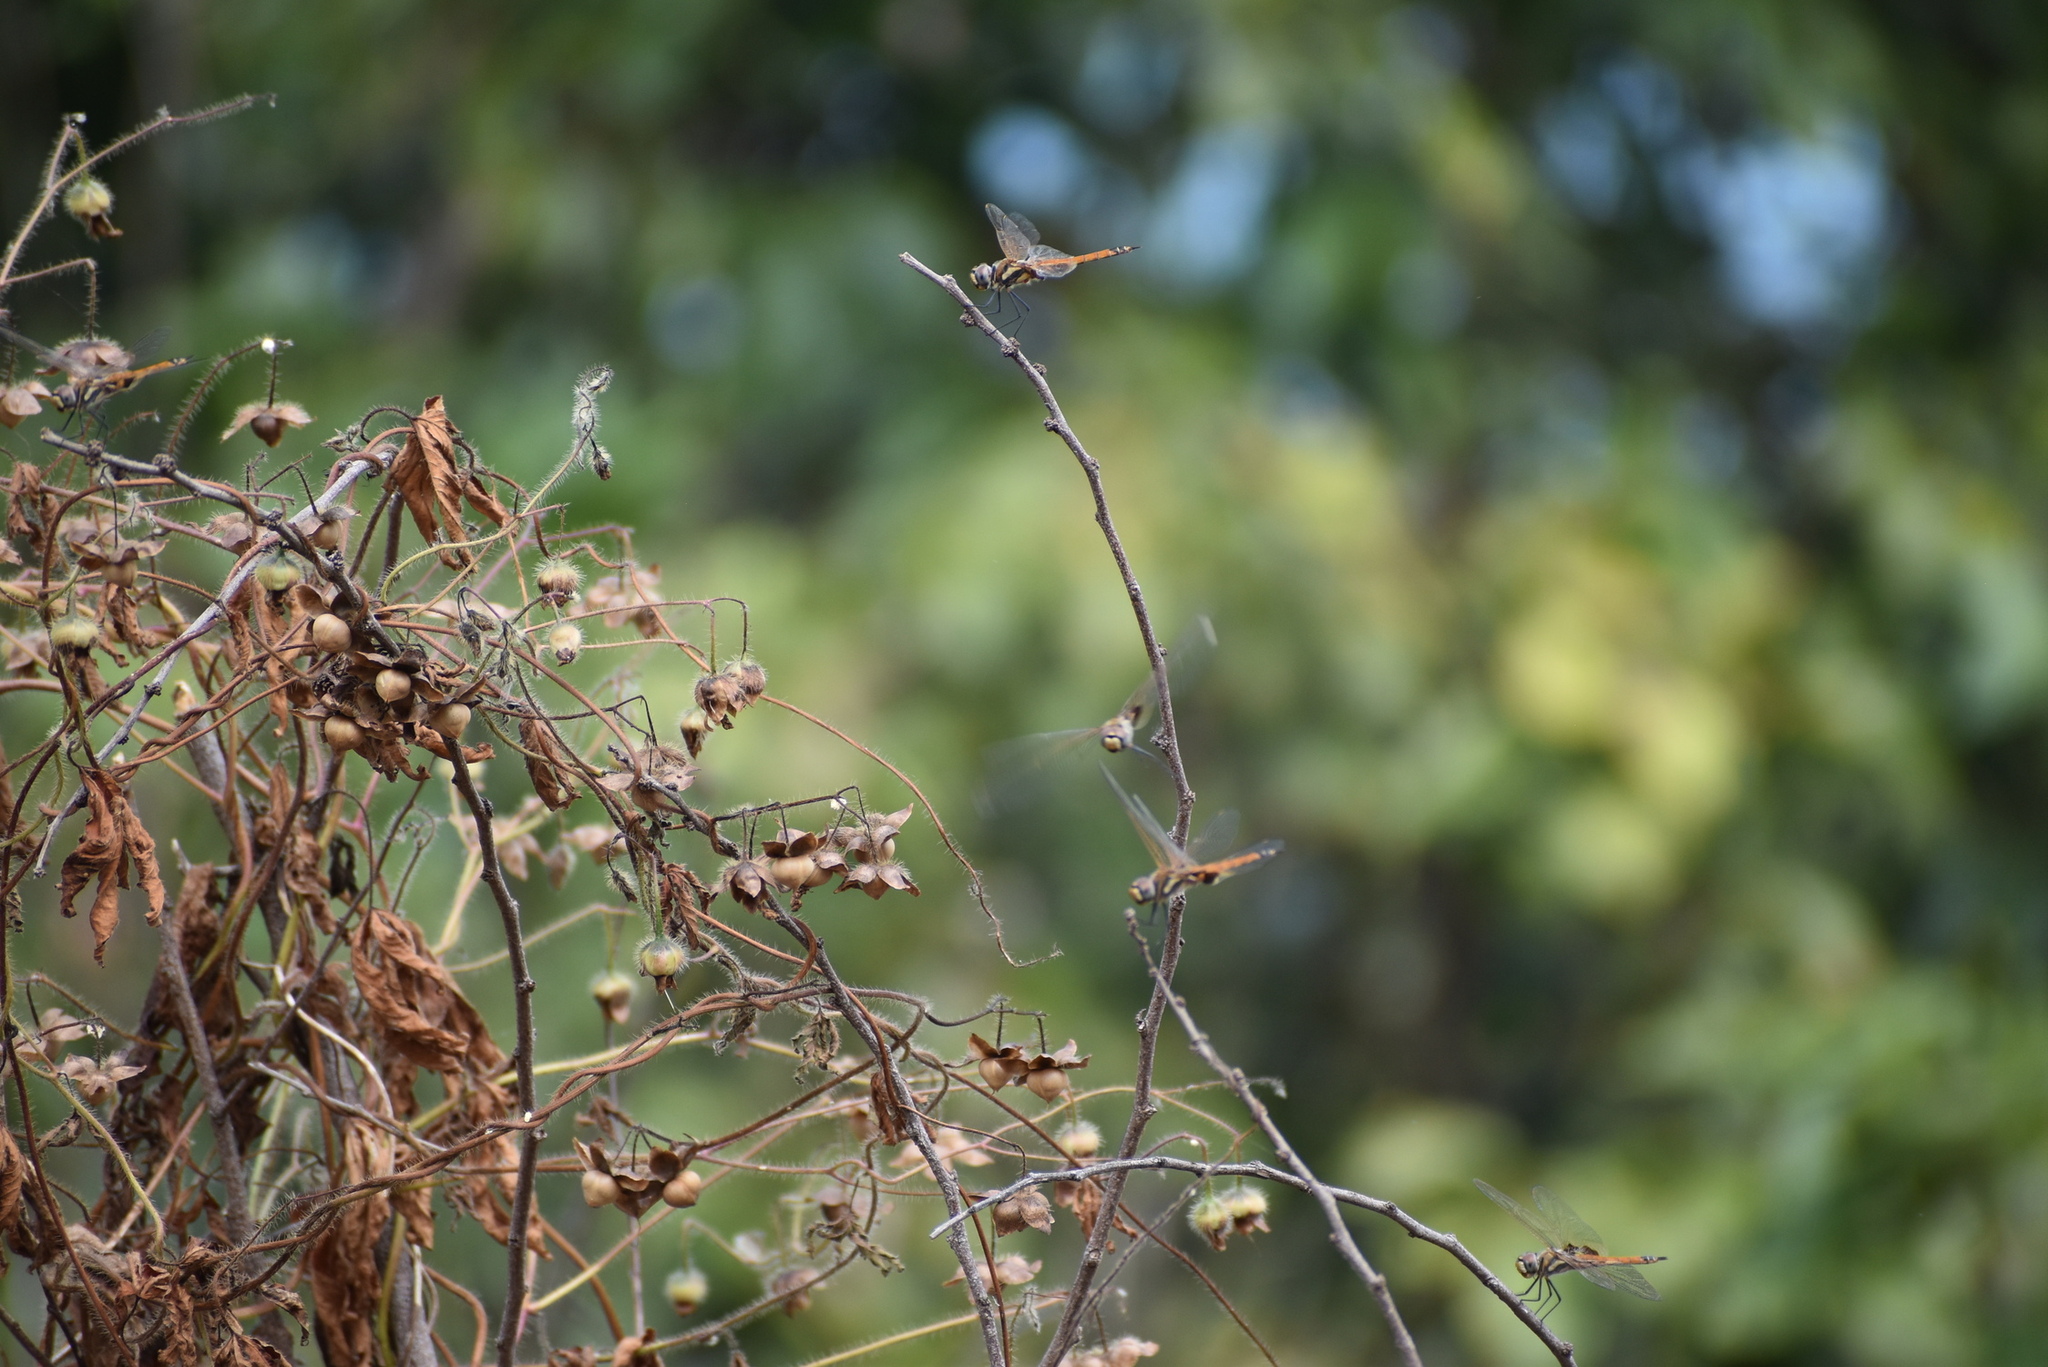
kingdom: Animalia
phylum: Arthropoda
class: Insecta
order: Odonata
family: Libellulidae
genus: Tramea
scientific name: Tramea loewii
